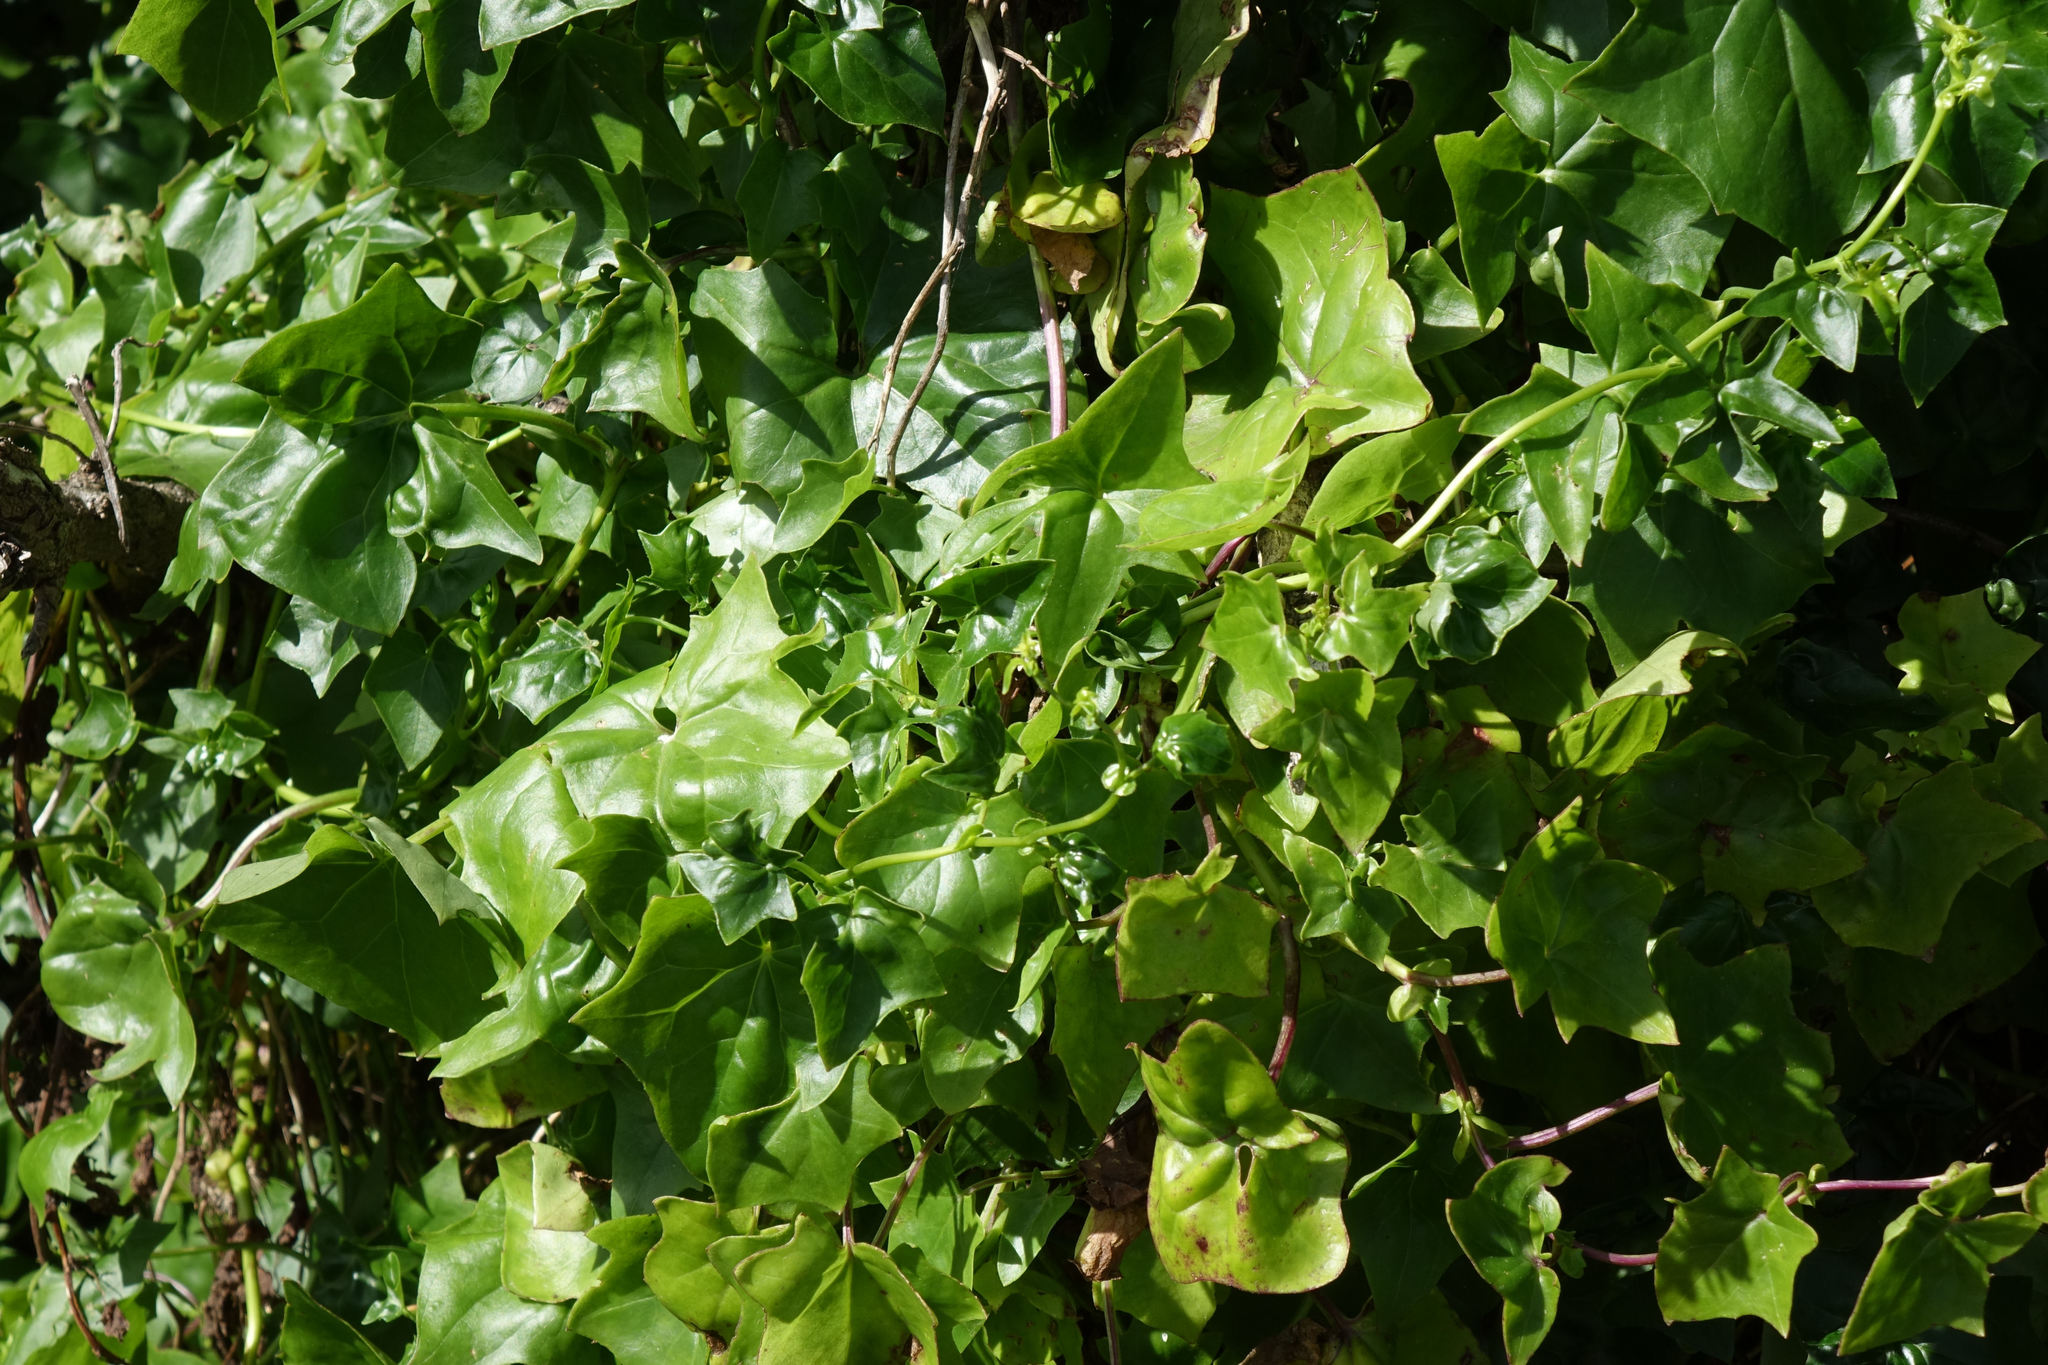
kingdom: Plantae
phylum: Tracheophyta
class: Magnoliopsida
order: Asterales
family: Asteraceae
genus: Delairea
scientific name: Delairea odorata
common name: Cape-ivy
